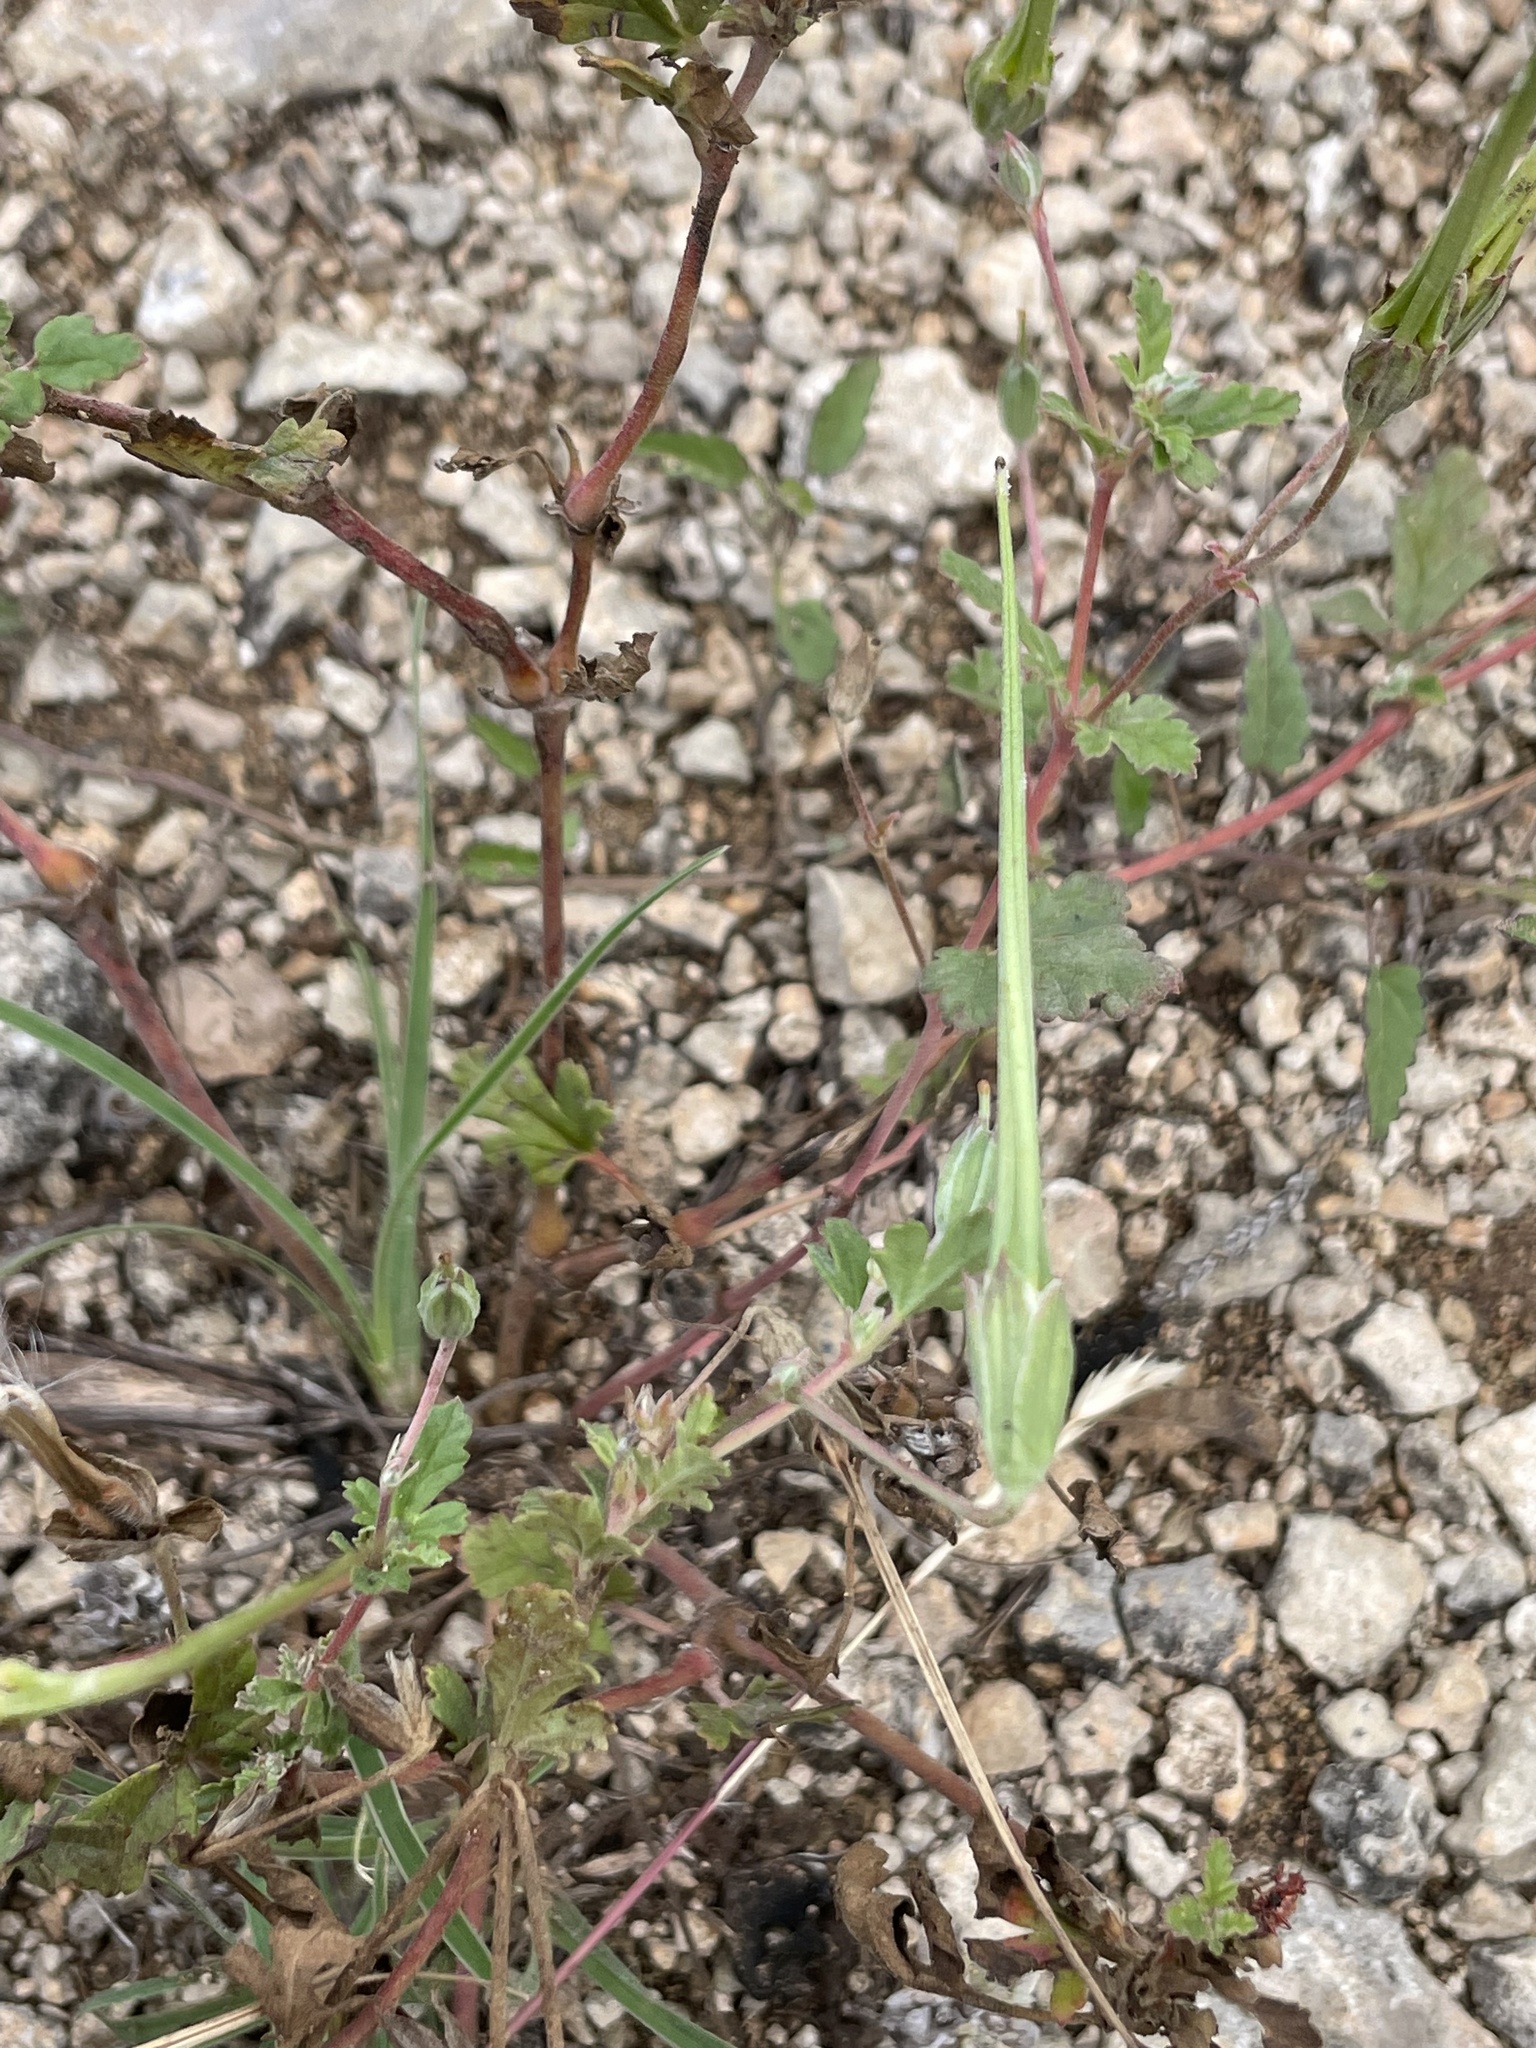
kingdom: Plantae
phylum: Tracheophyta
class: Magnoliopsida
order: Geraniales
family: Geraniaceae
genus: Erodium
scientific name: Erodium texanum
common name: Texas stork's-bill
